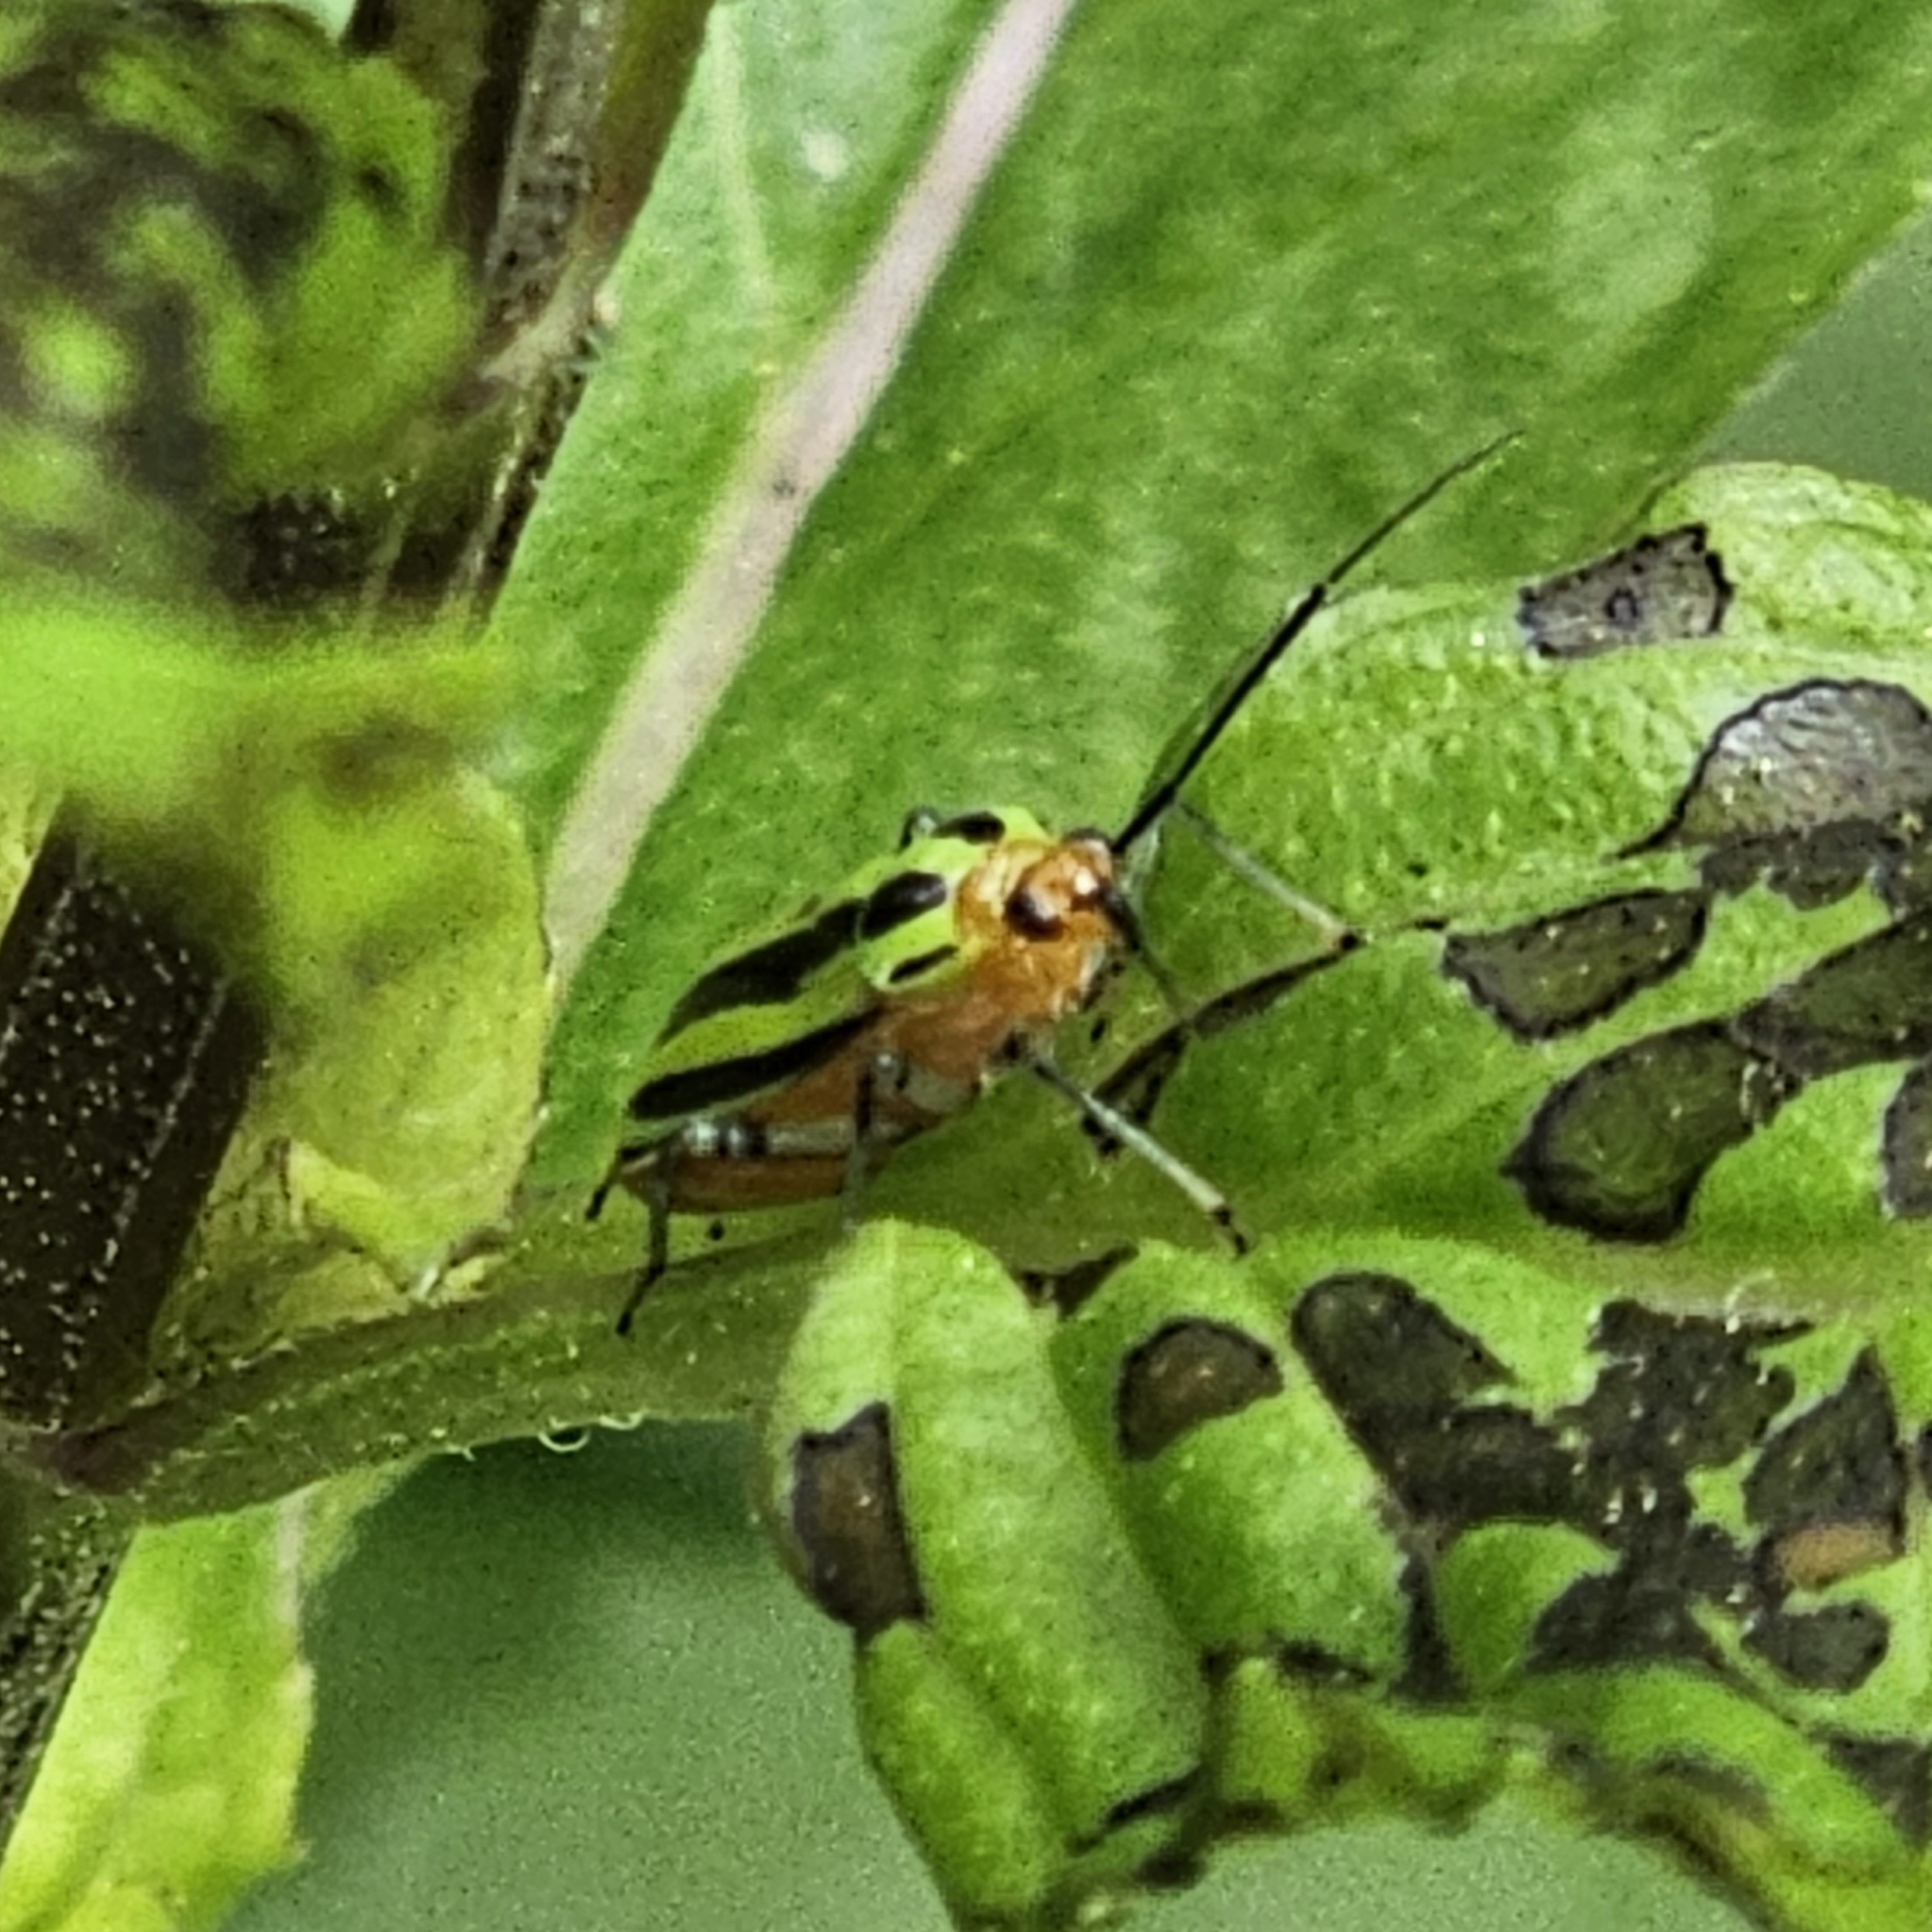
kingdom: Animalia
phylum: Arthropoda
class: Insecta
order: Hemiptera
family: Miridae
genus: Poecilocapsus
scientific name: Poecilocapsus lineatus
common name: Four-lined plant bug
